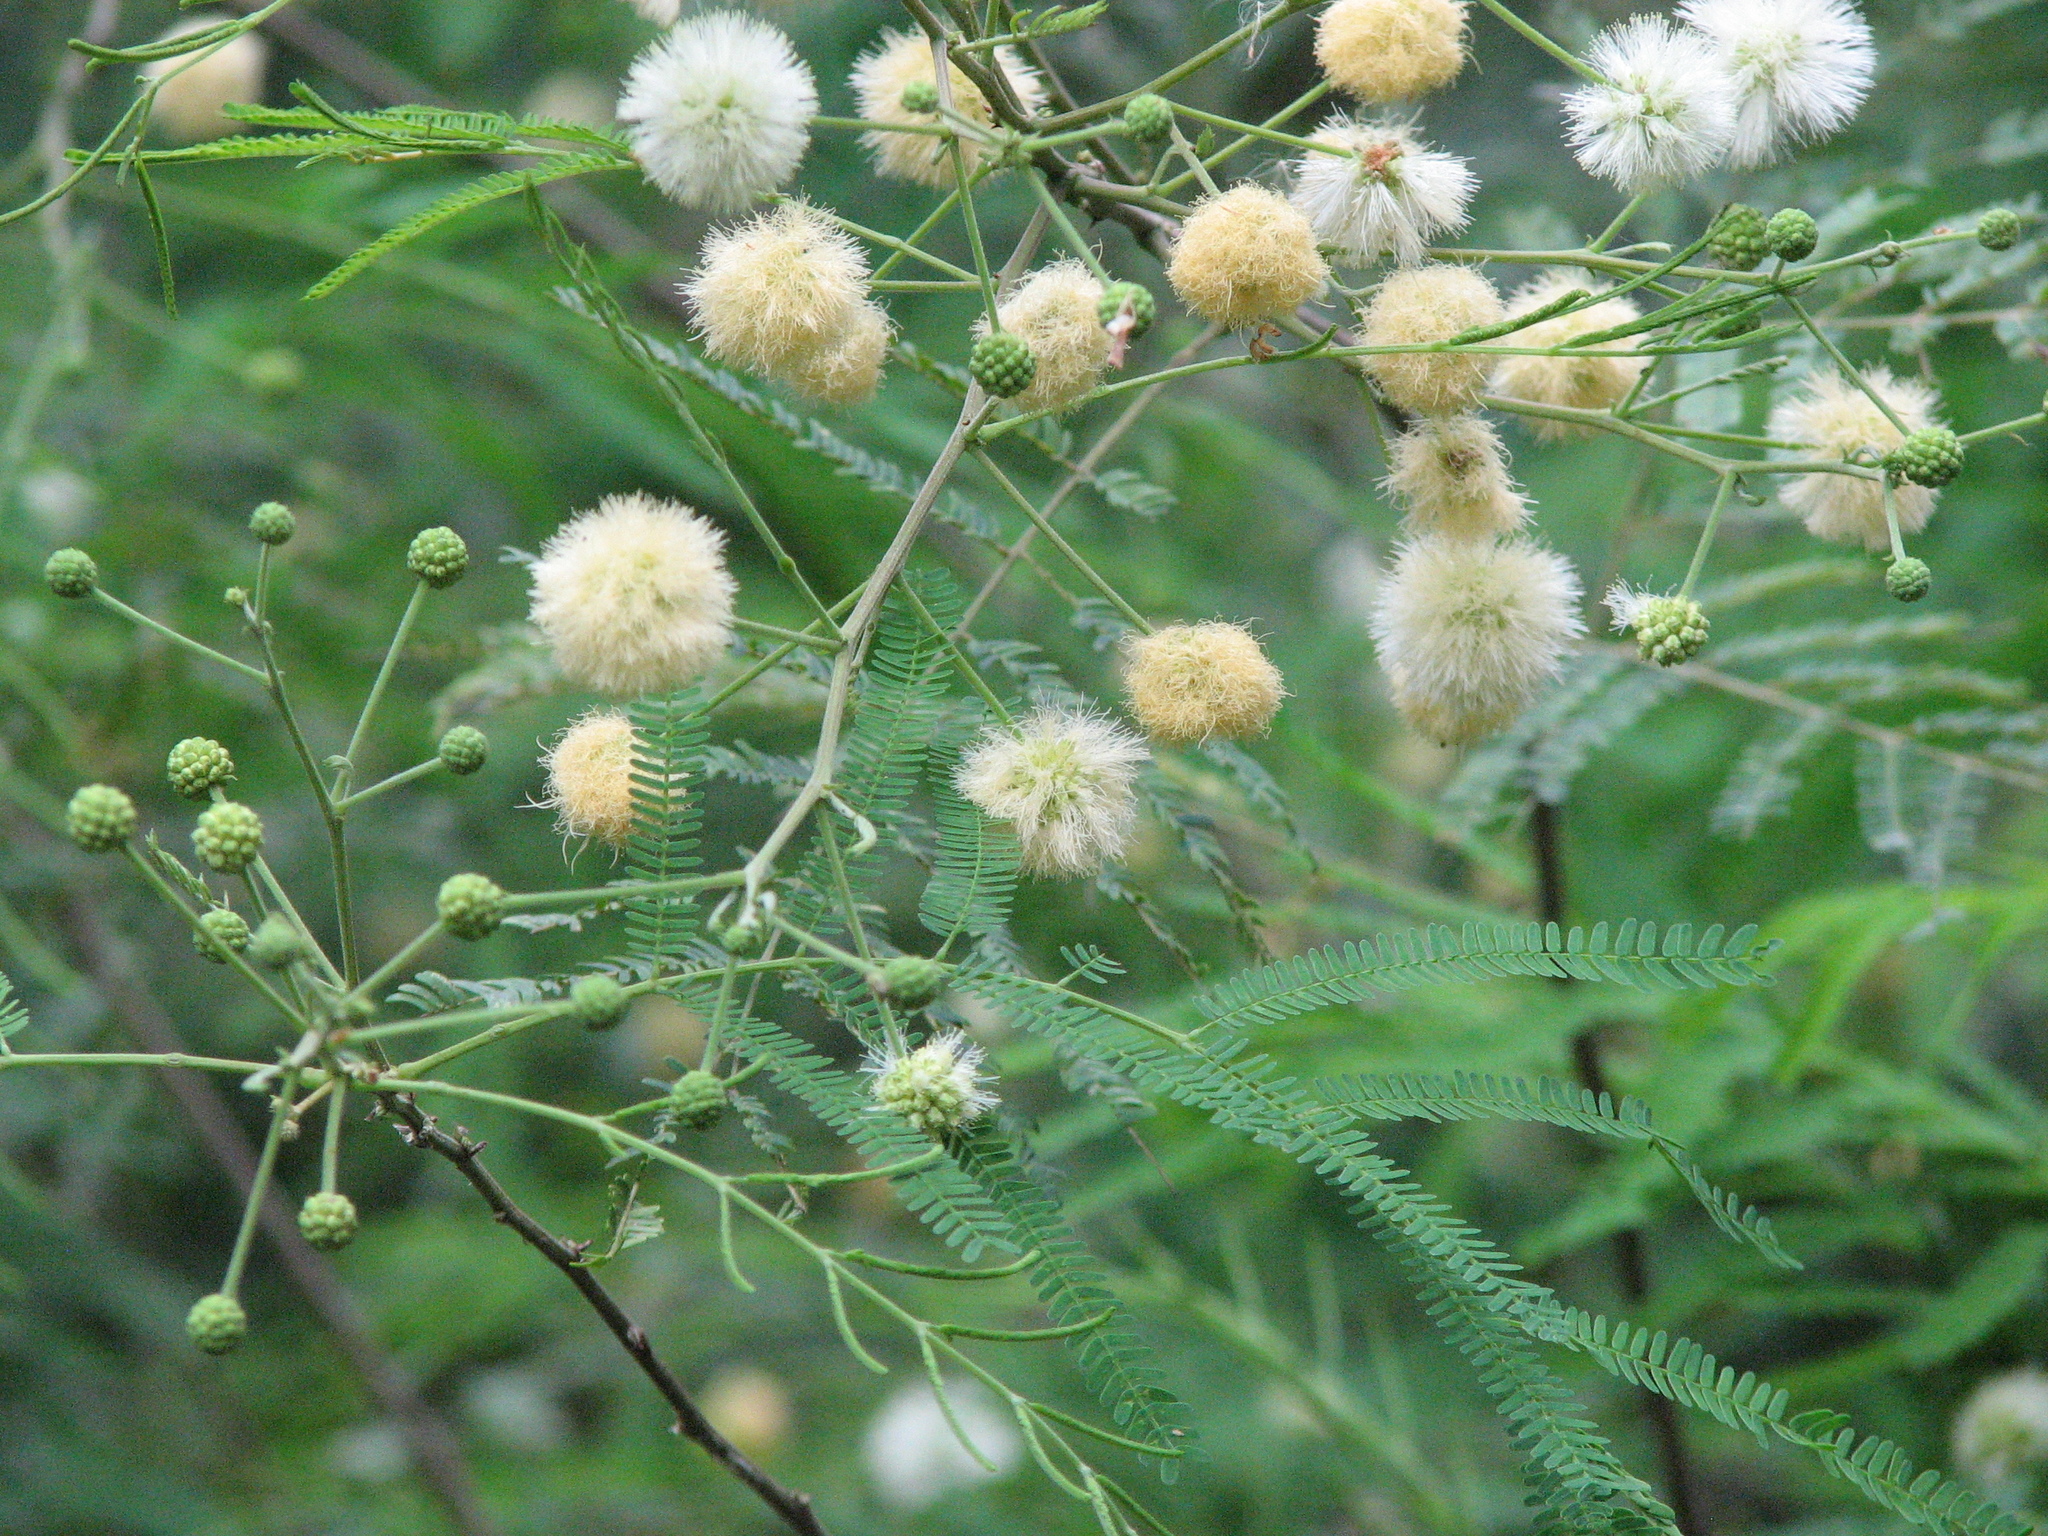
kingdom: Plantae
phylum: Tracheophyta
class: Magnoliopsida
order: Fabales
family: Fabaceae
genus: Senegalia
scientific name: Senegalia berlandieri
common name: Berlandier acacia
